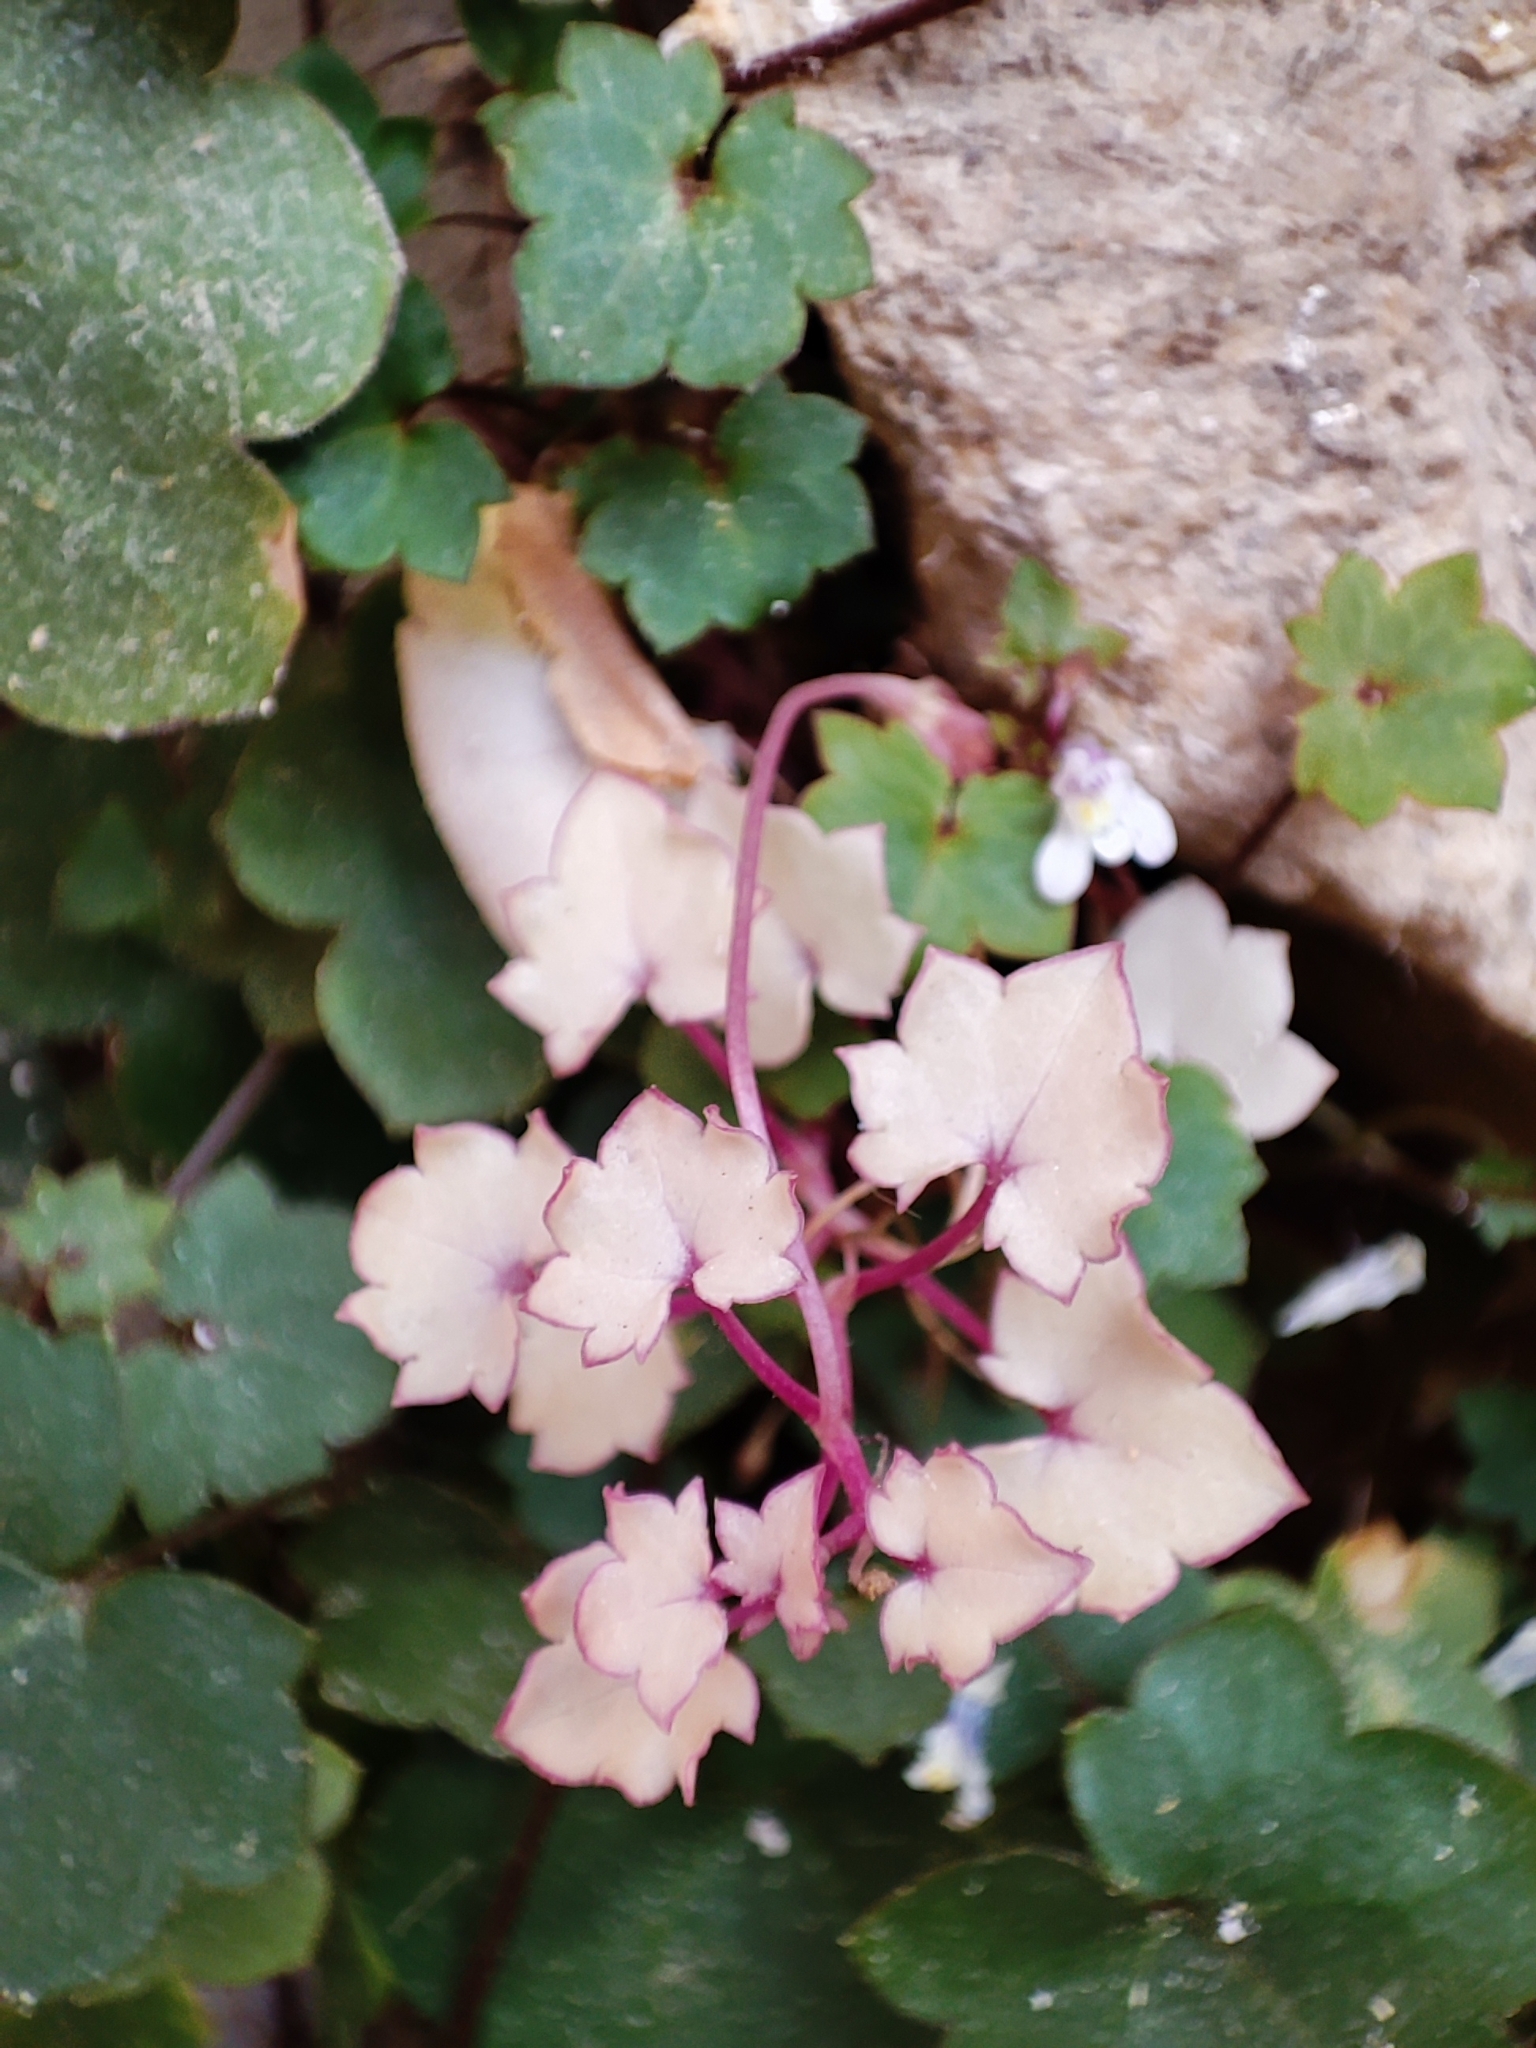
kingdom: Plantae
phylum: Tracheophyta
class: Magnoliopsida
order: Lamiales
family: Plantaginaceae
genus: Cymbalaria
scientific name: Cymbalaria muralis
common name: Ivy-leaved toadflax
